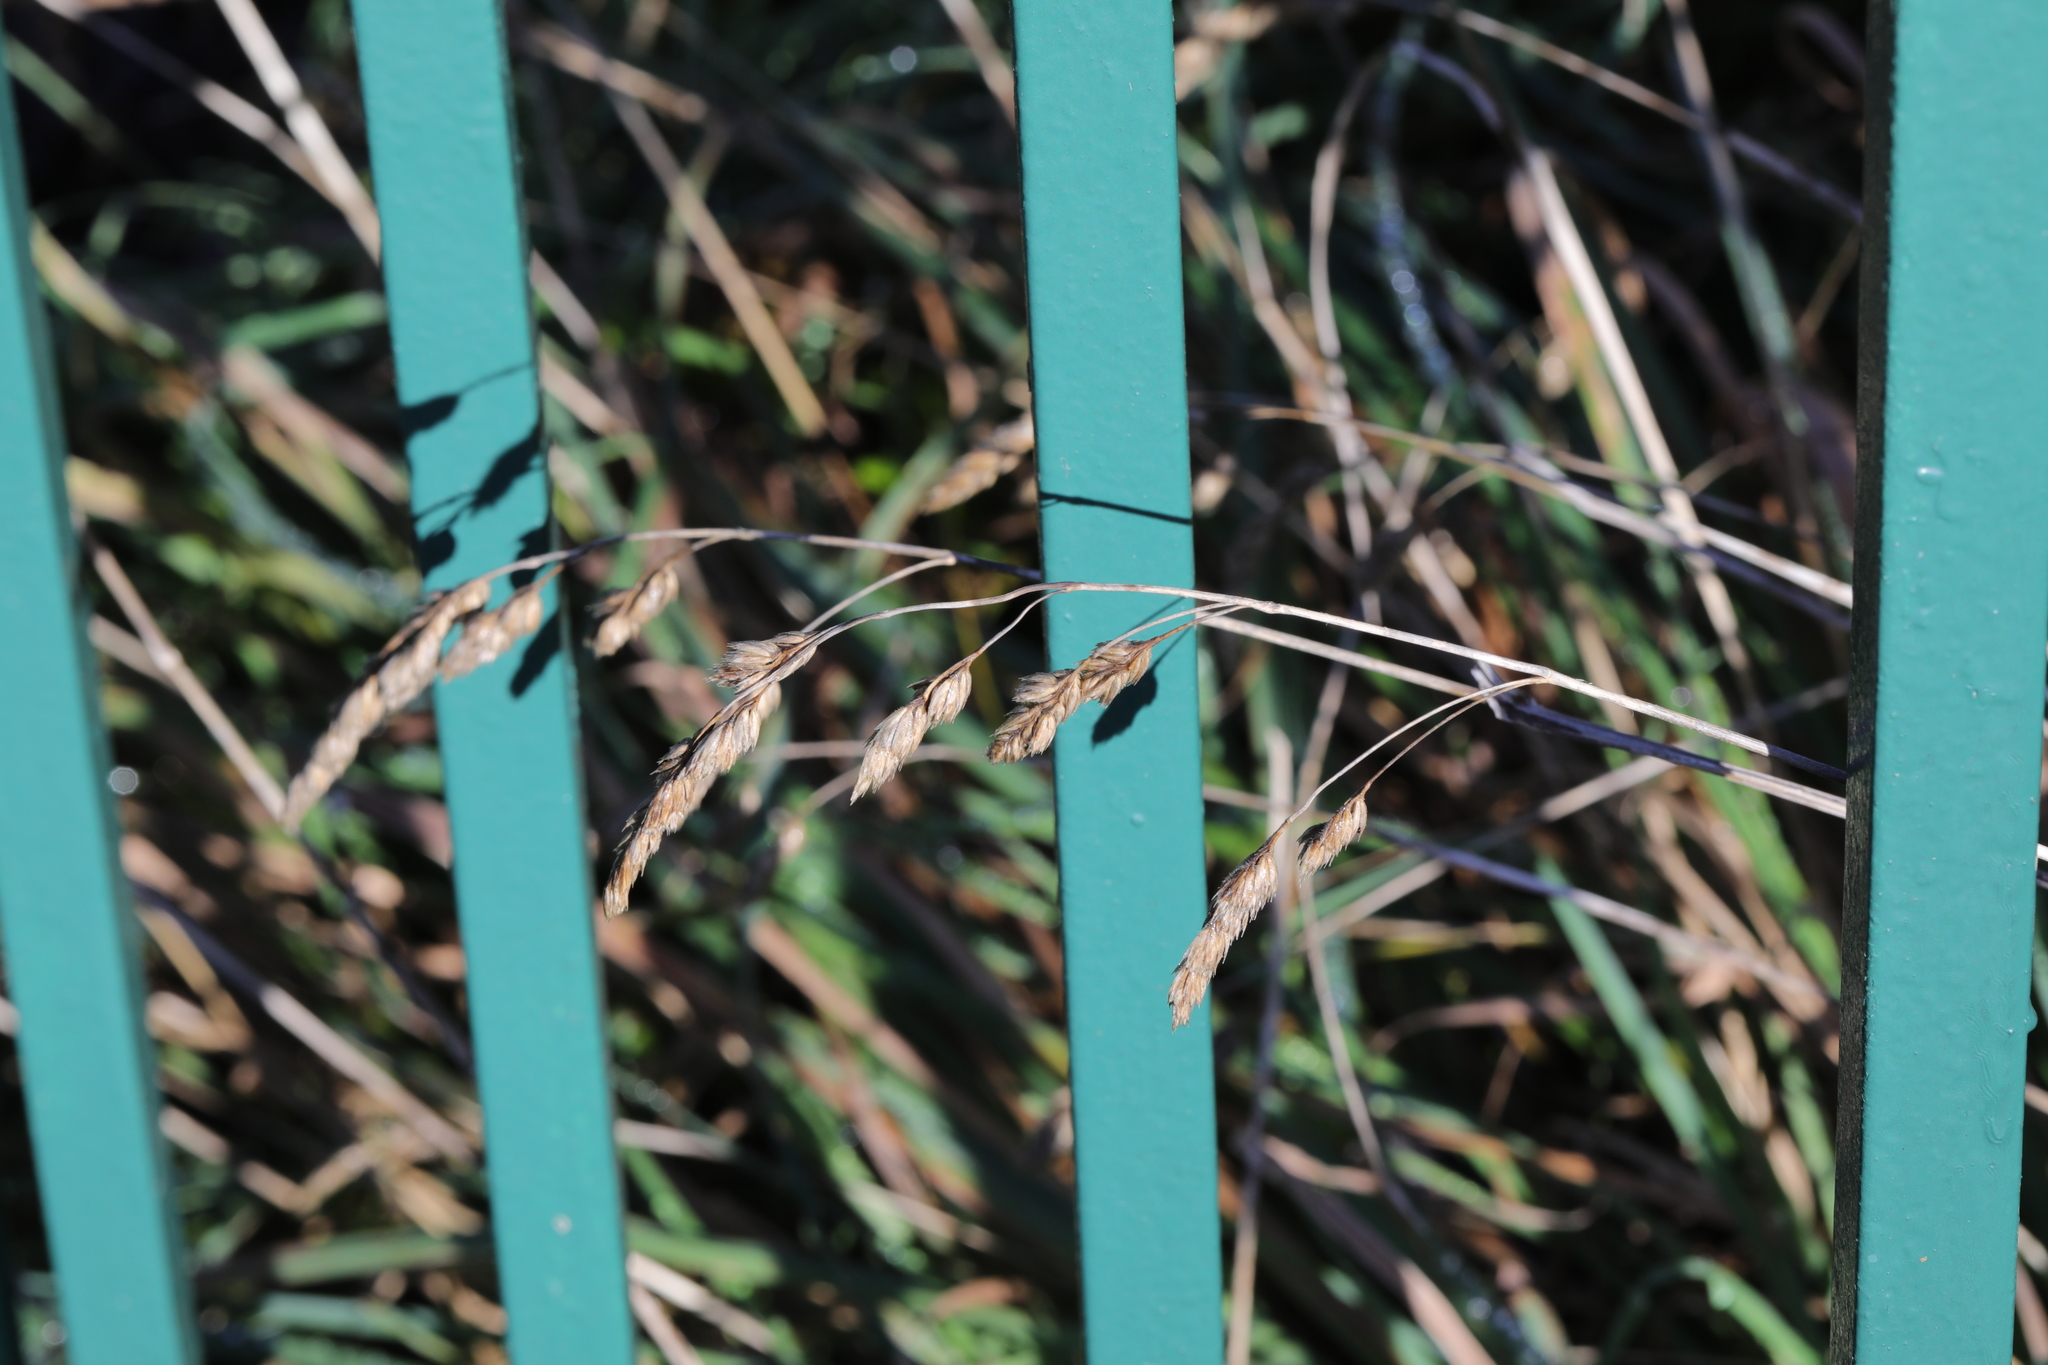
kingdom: Plantae
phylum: Tracheophyta
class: Liliopsida
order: Poales
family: Poaceae
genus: Dactylis
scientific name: Dactylis glomerata
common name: Orchardgrass
